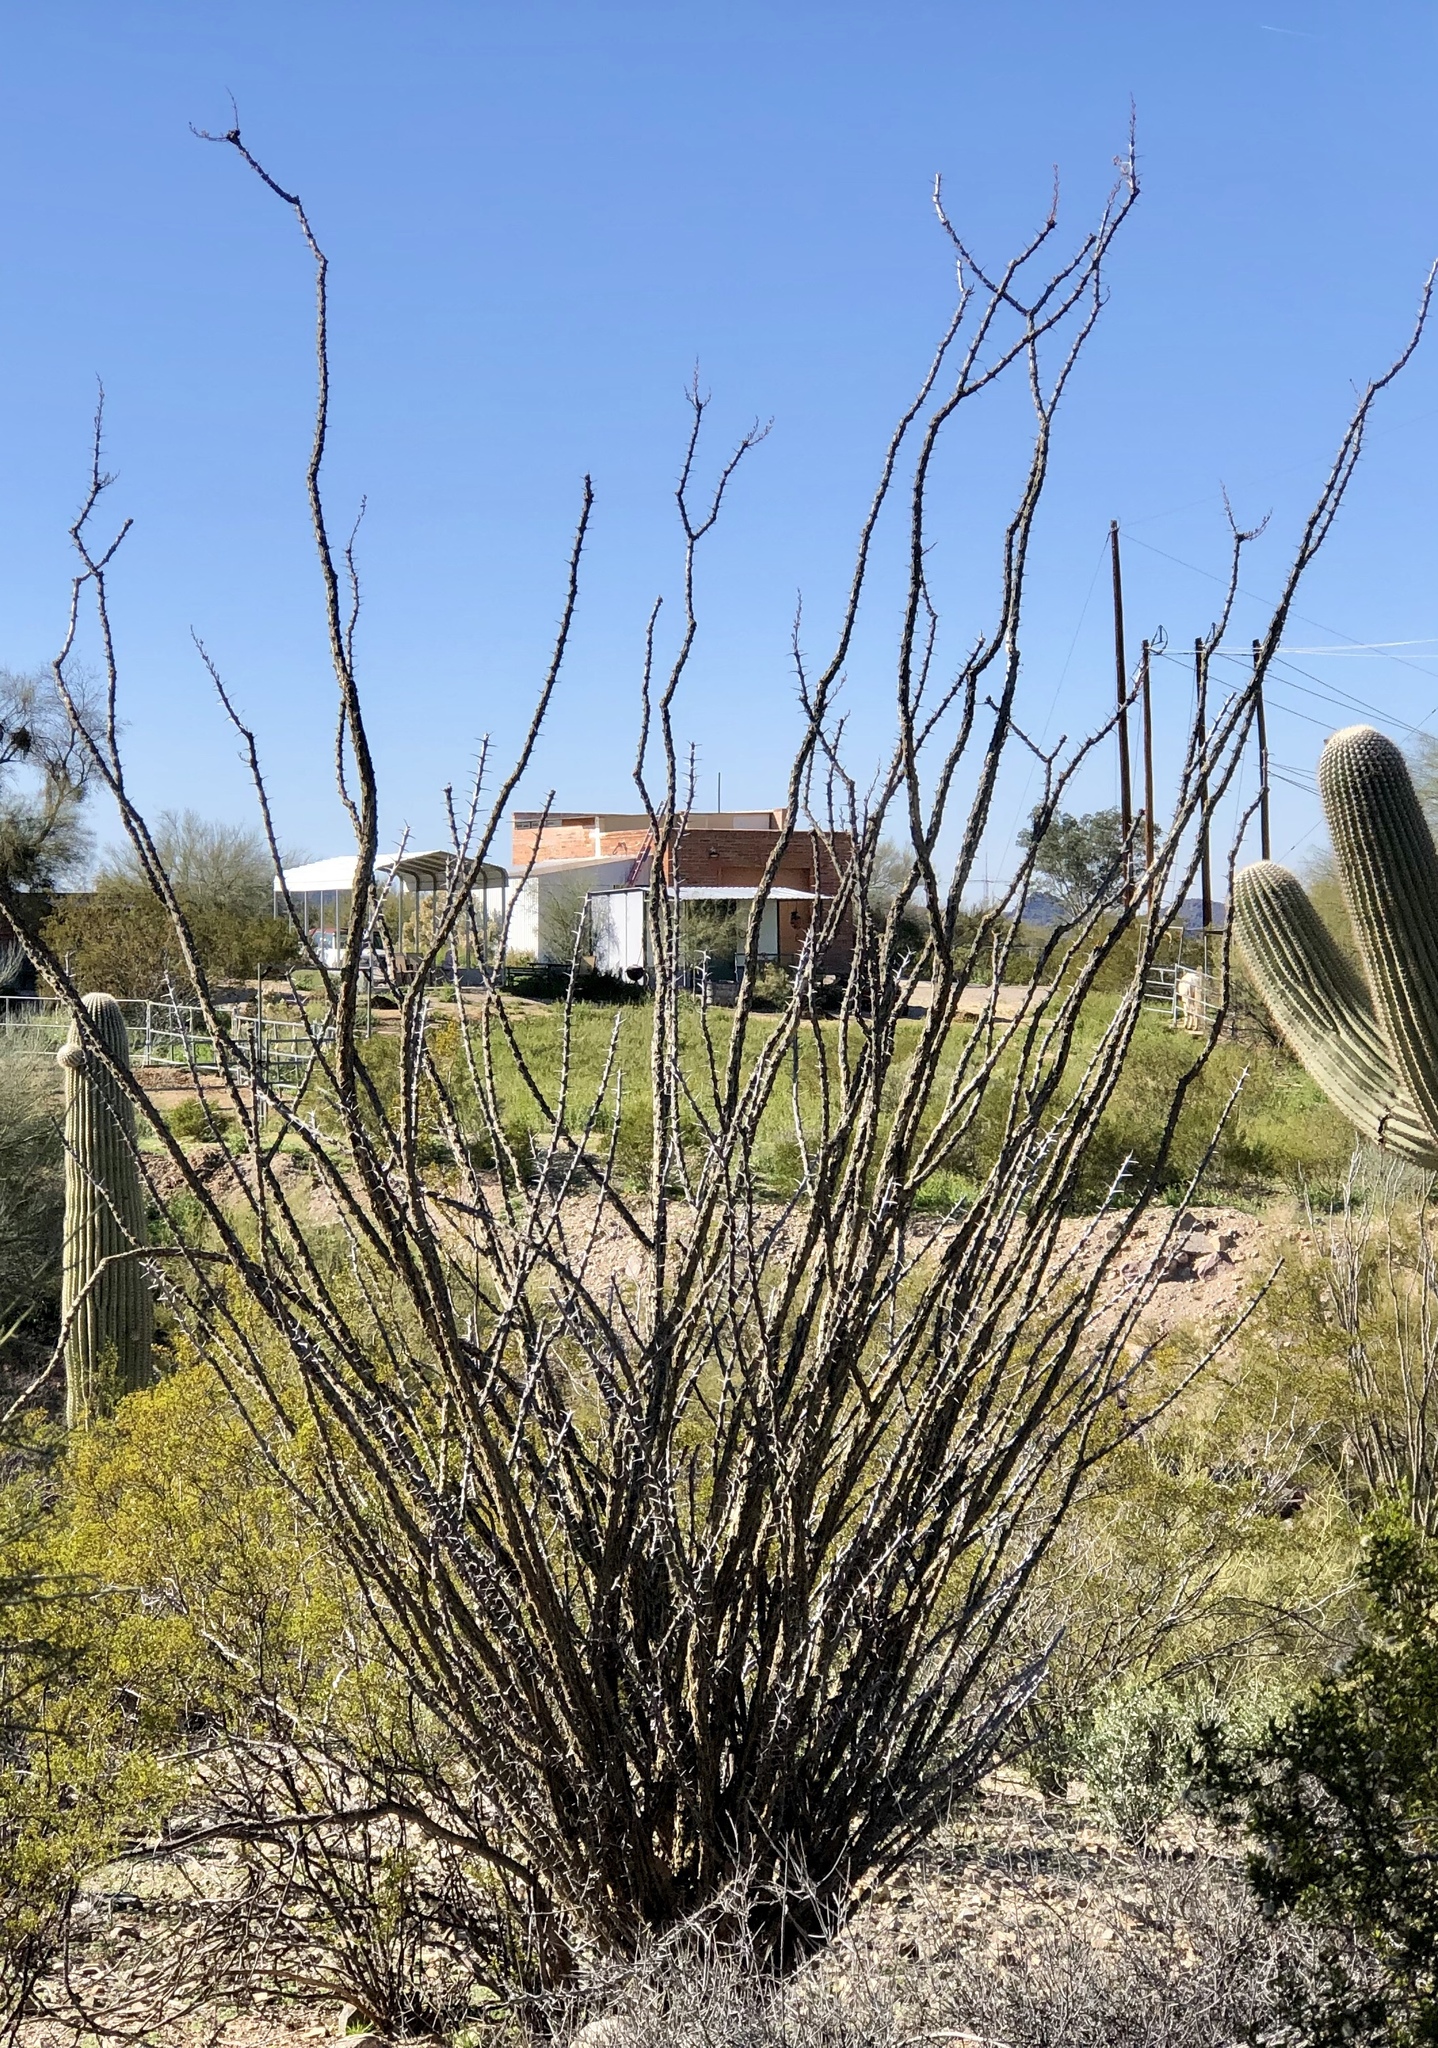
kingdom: Plantae
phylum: Tracheophyta
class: Magnoliopsida
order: Ericales
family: Fouquieriaceae
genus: Fouquieria
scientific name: Fouquieria splendens
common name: Vine-cactus
